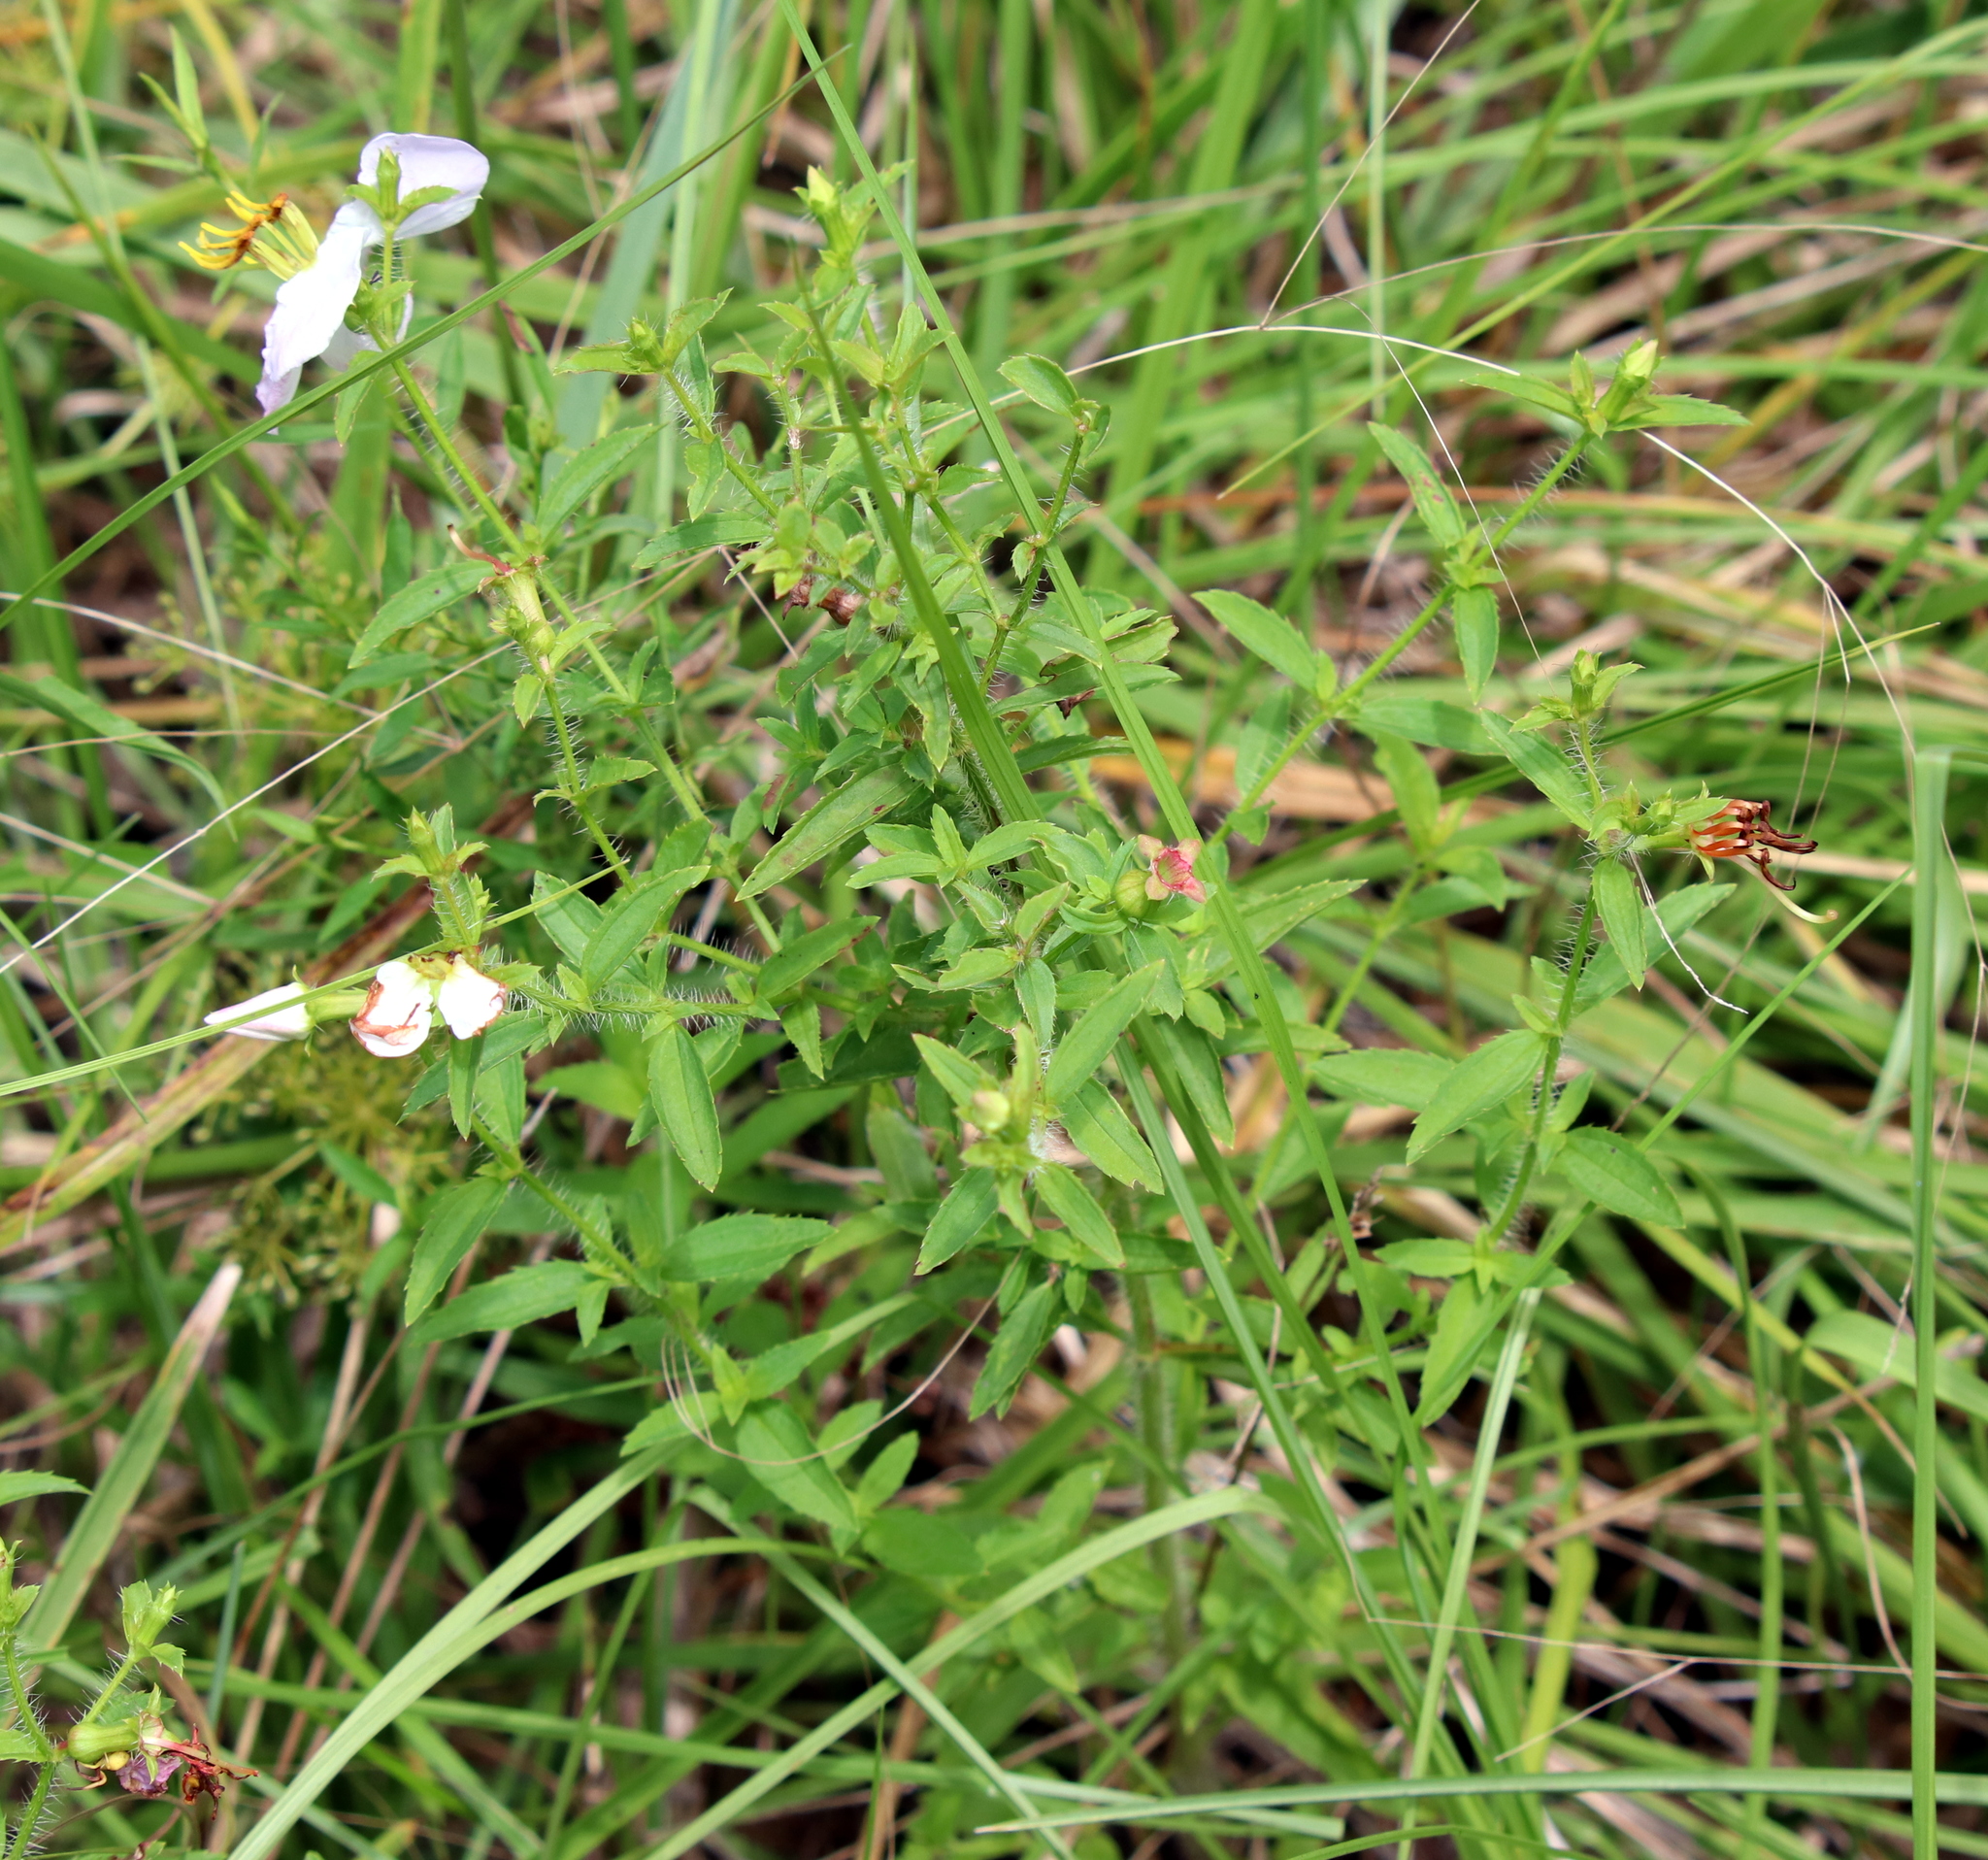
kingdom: Plantae
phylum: Tracheophyta
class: Magnoliopsida
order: Myrtales
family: Melastomataceae
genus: Rhexia
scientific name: Rhexia mariana
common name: Dull meadow-pitcher
